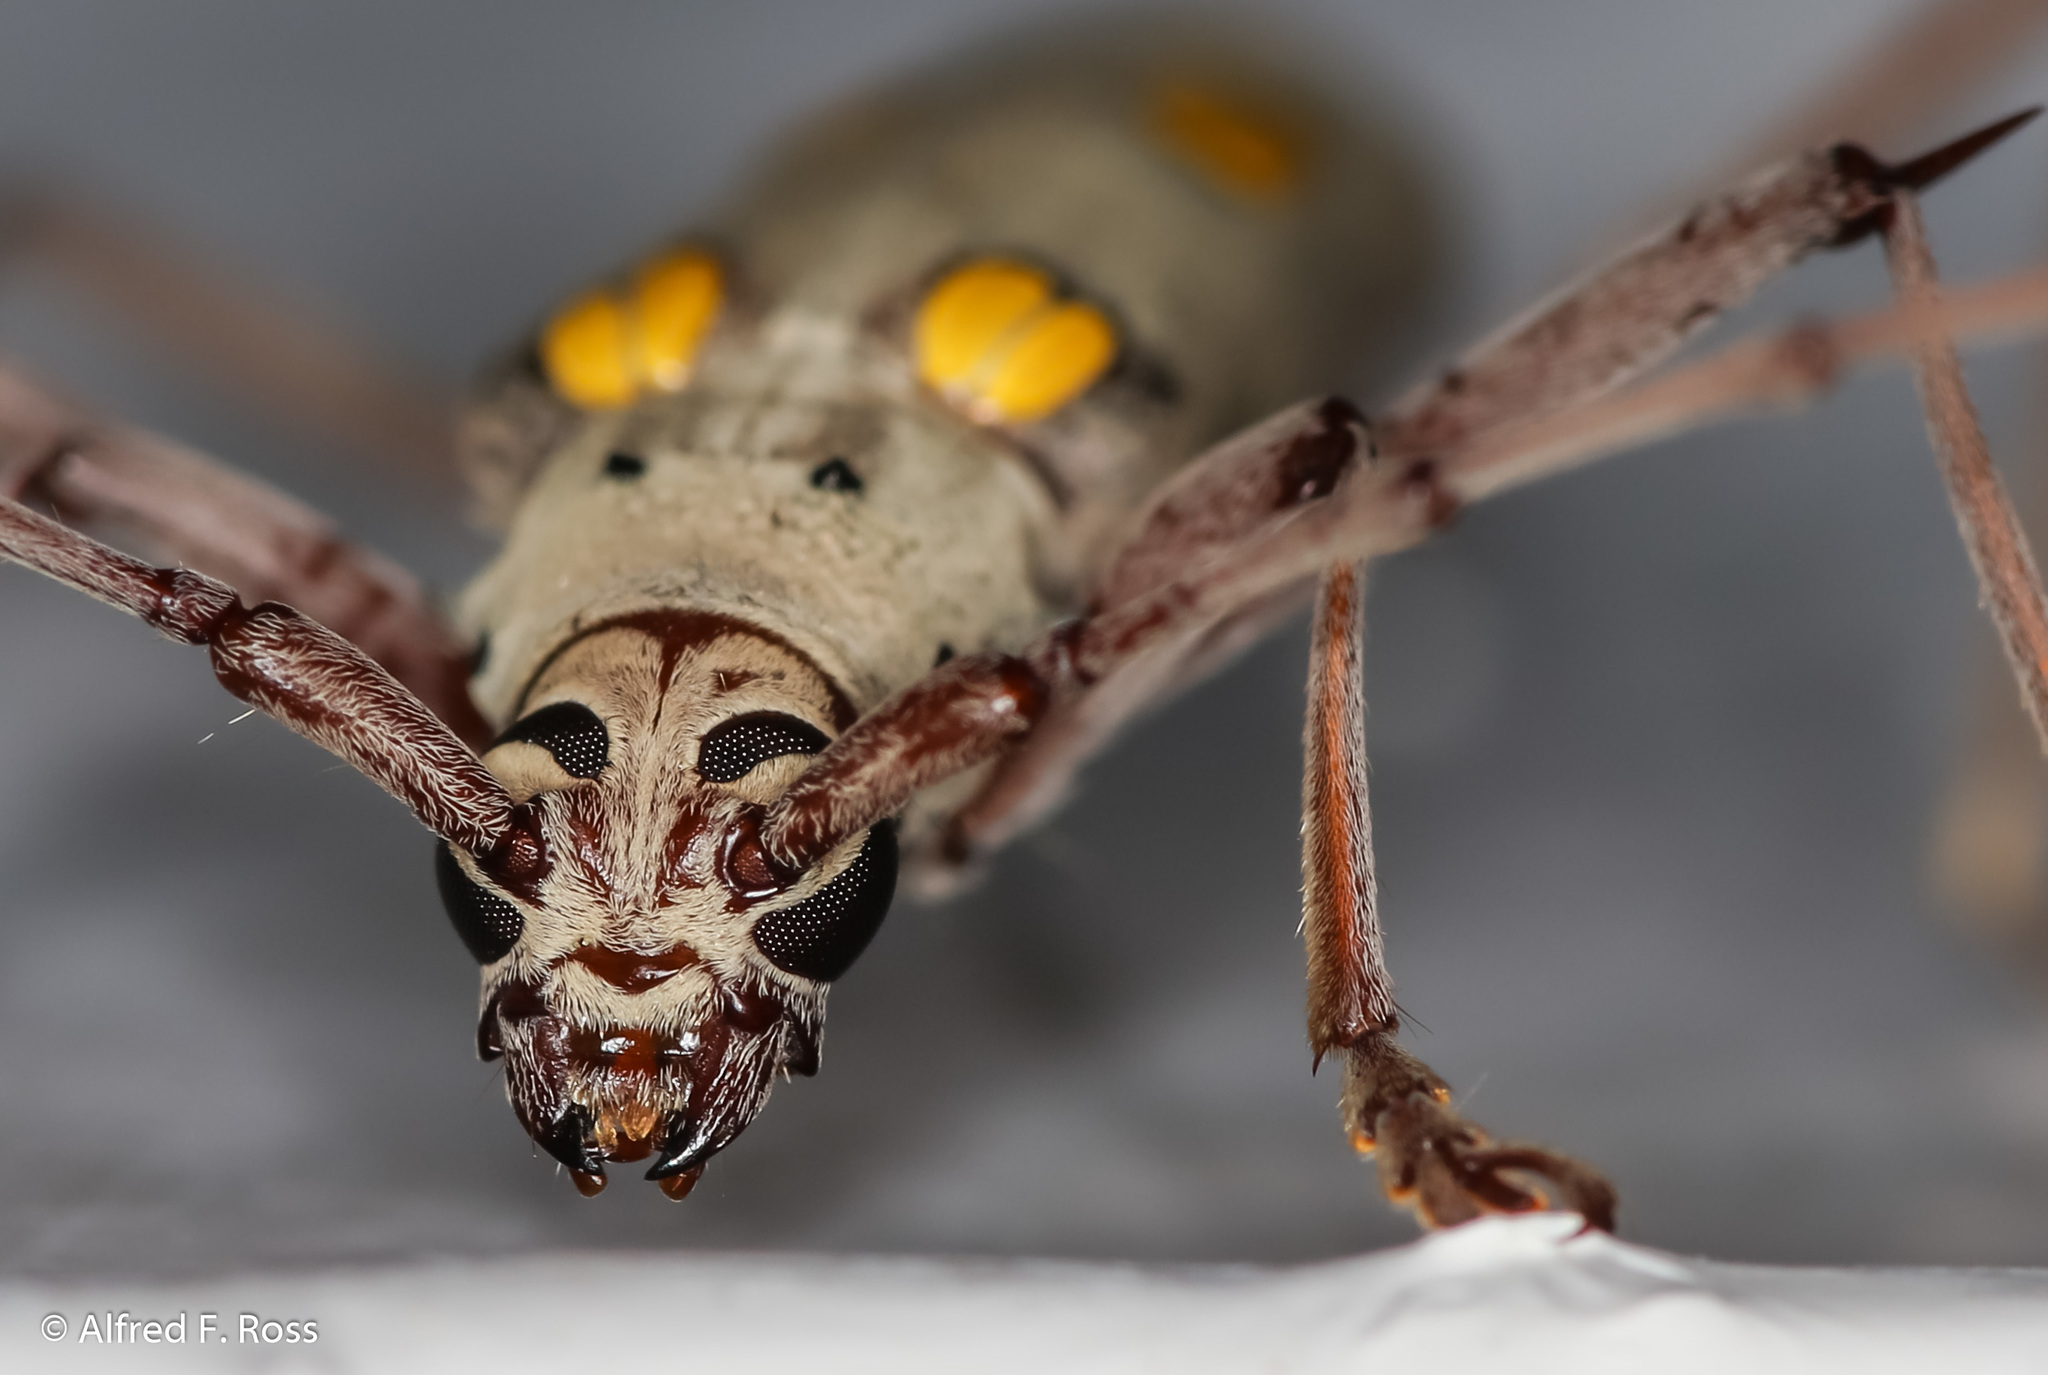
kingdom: Animalia
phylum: Arthropoda
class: Insecta
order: Coleoptera
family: Cerambycidae
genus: Eburia
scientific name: Eburia jamaicae
